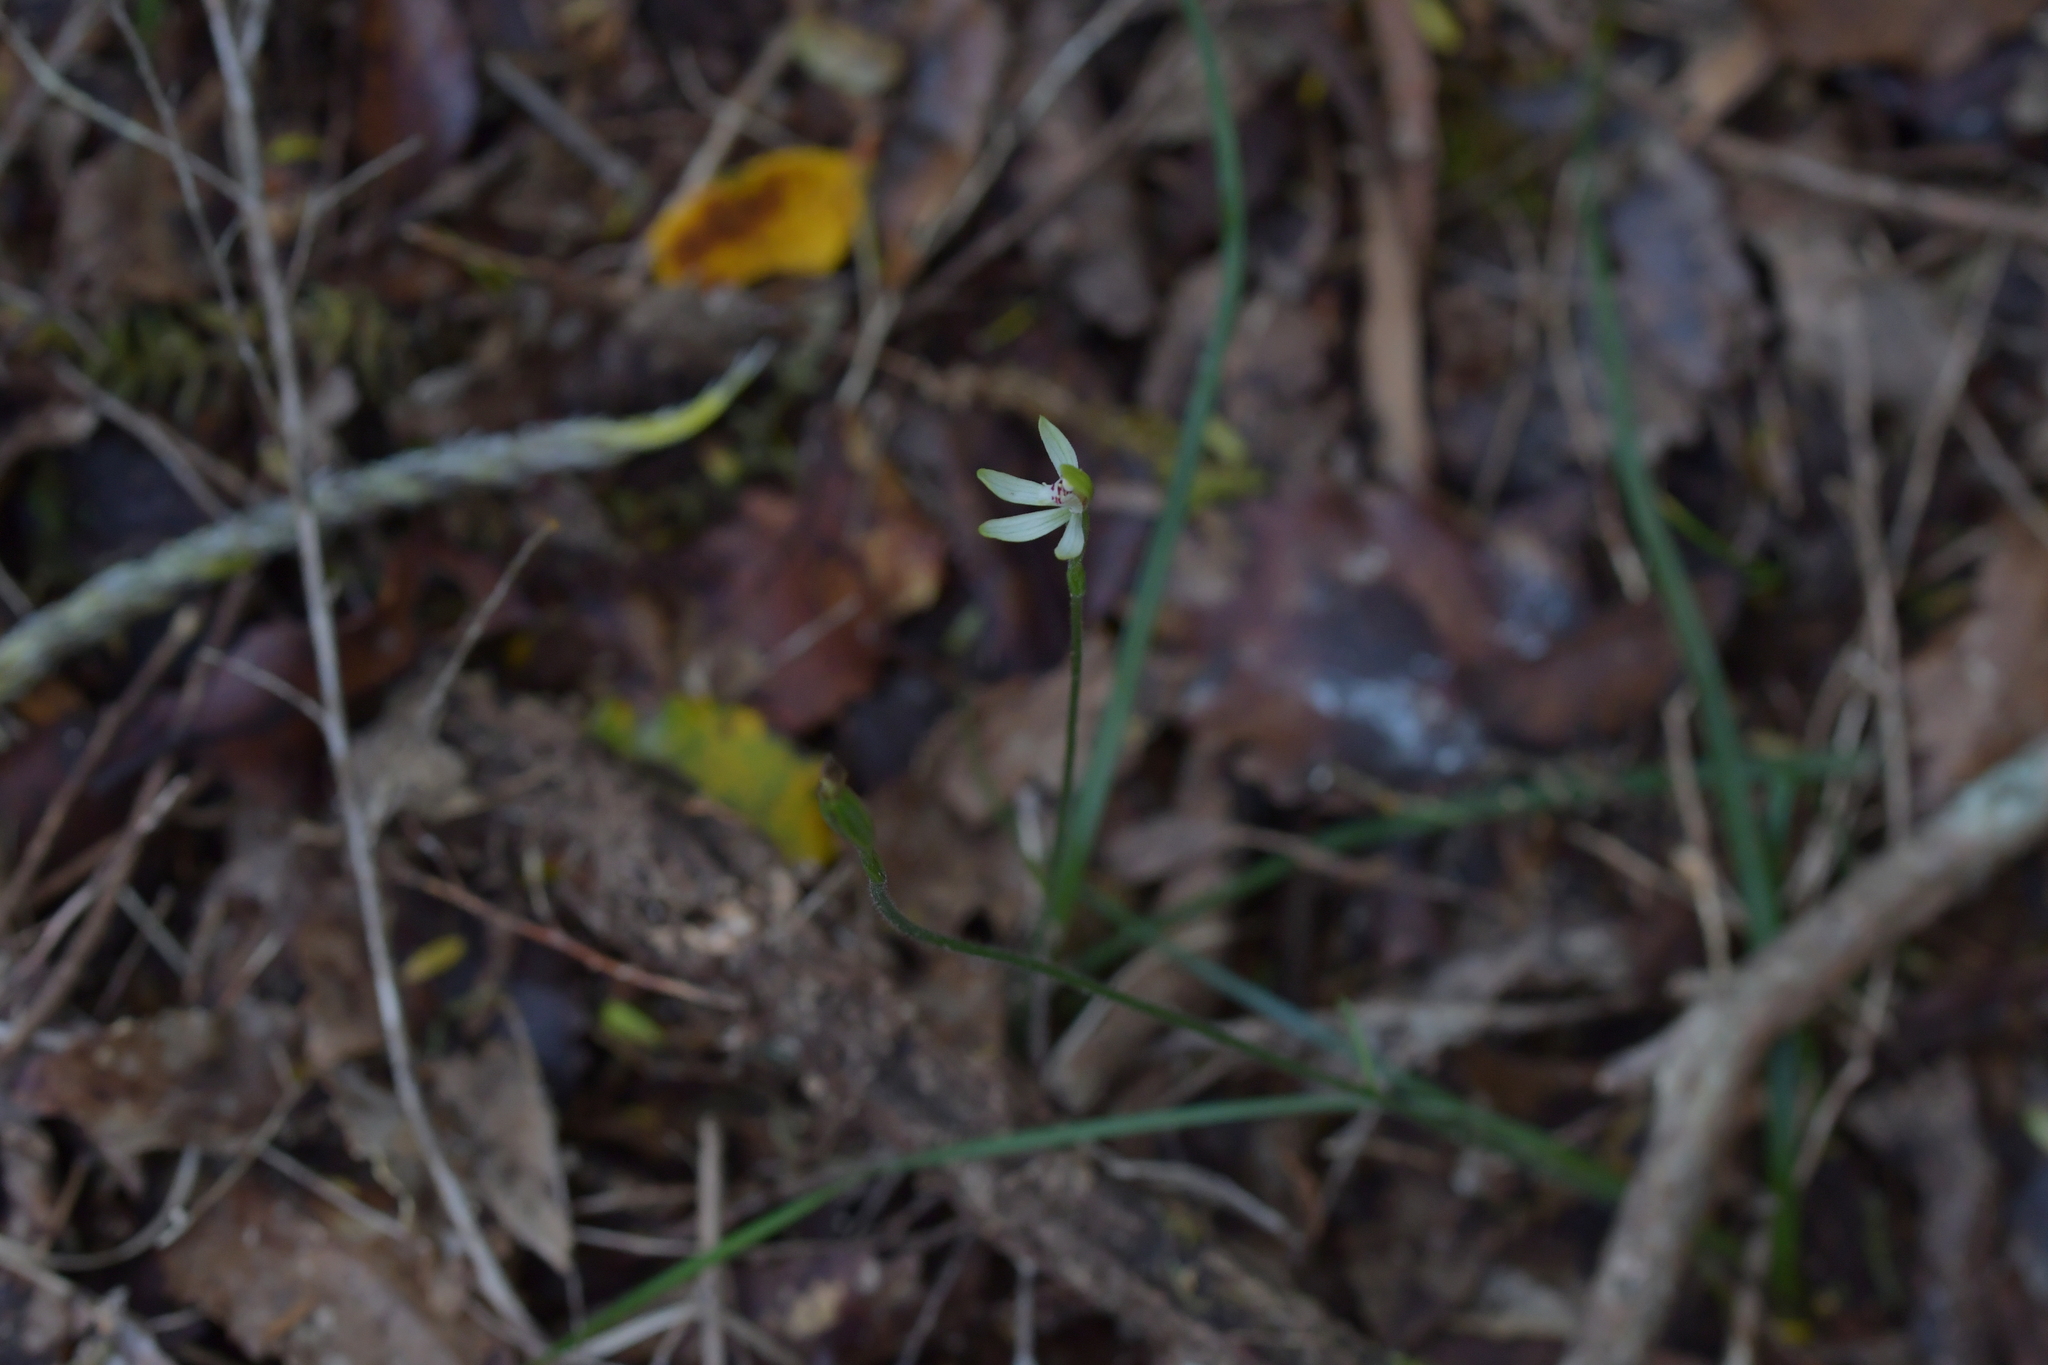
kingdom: Plantae
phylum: Tracheophyta
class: Liliopsida
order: Asparagales
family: Orchidaceae
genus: Caladenia
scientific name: Caladenia chlorostyla
